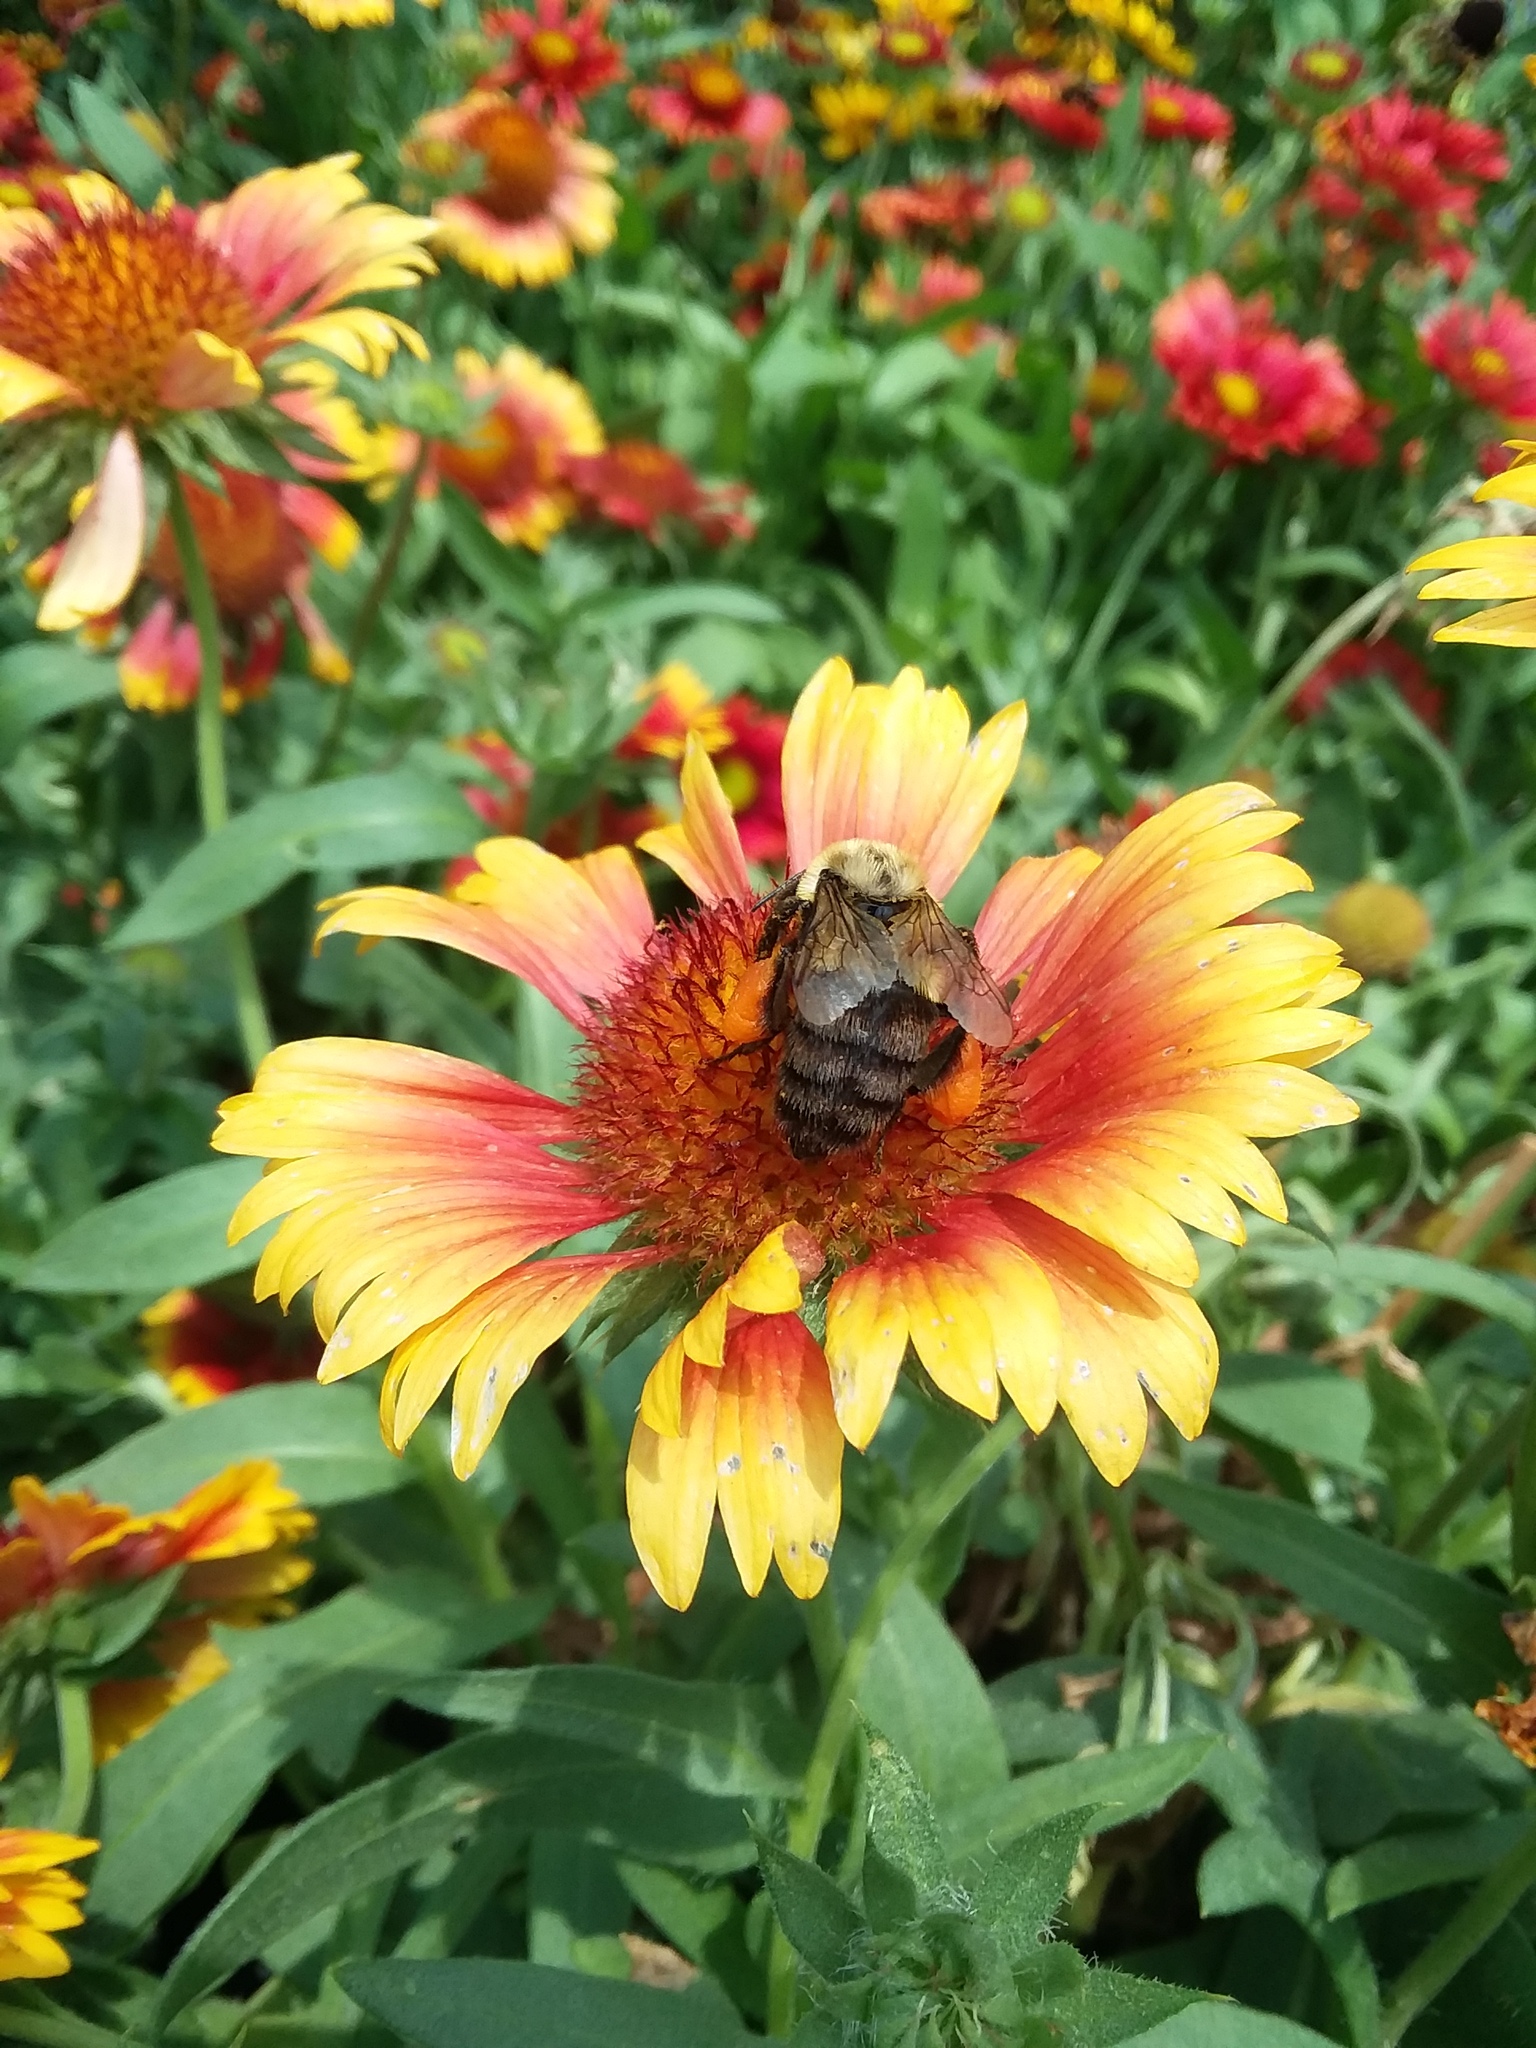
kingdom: Animalia
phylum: Arthropoda
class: Insecta
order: Hymenoptera
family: Apidae
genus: Bombus
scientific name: Bombus impatiens
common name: Common eastern bumble bee
